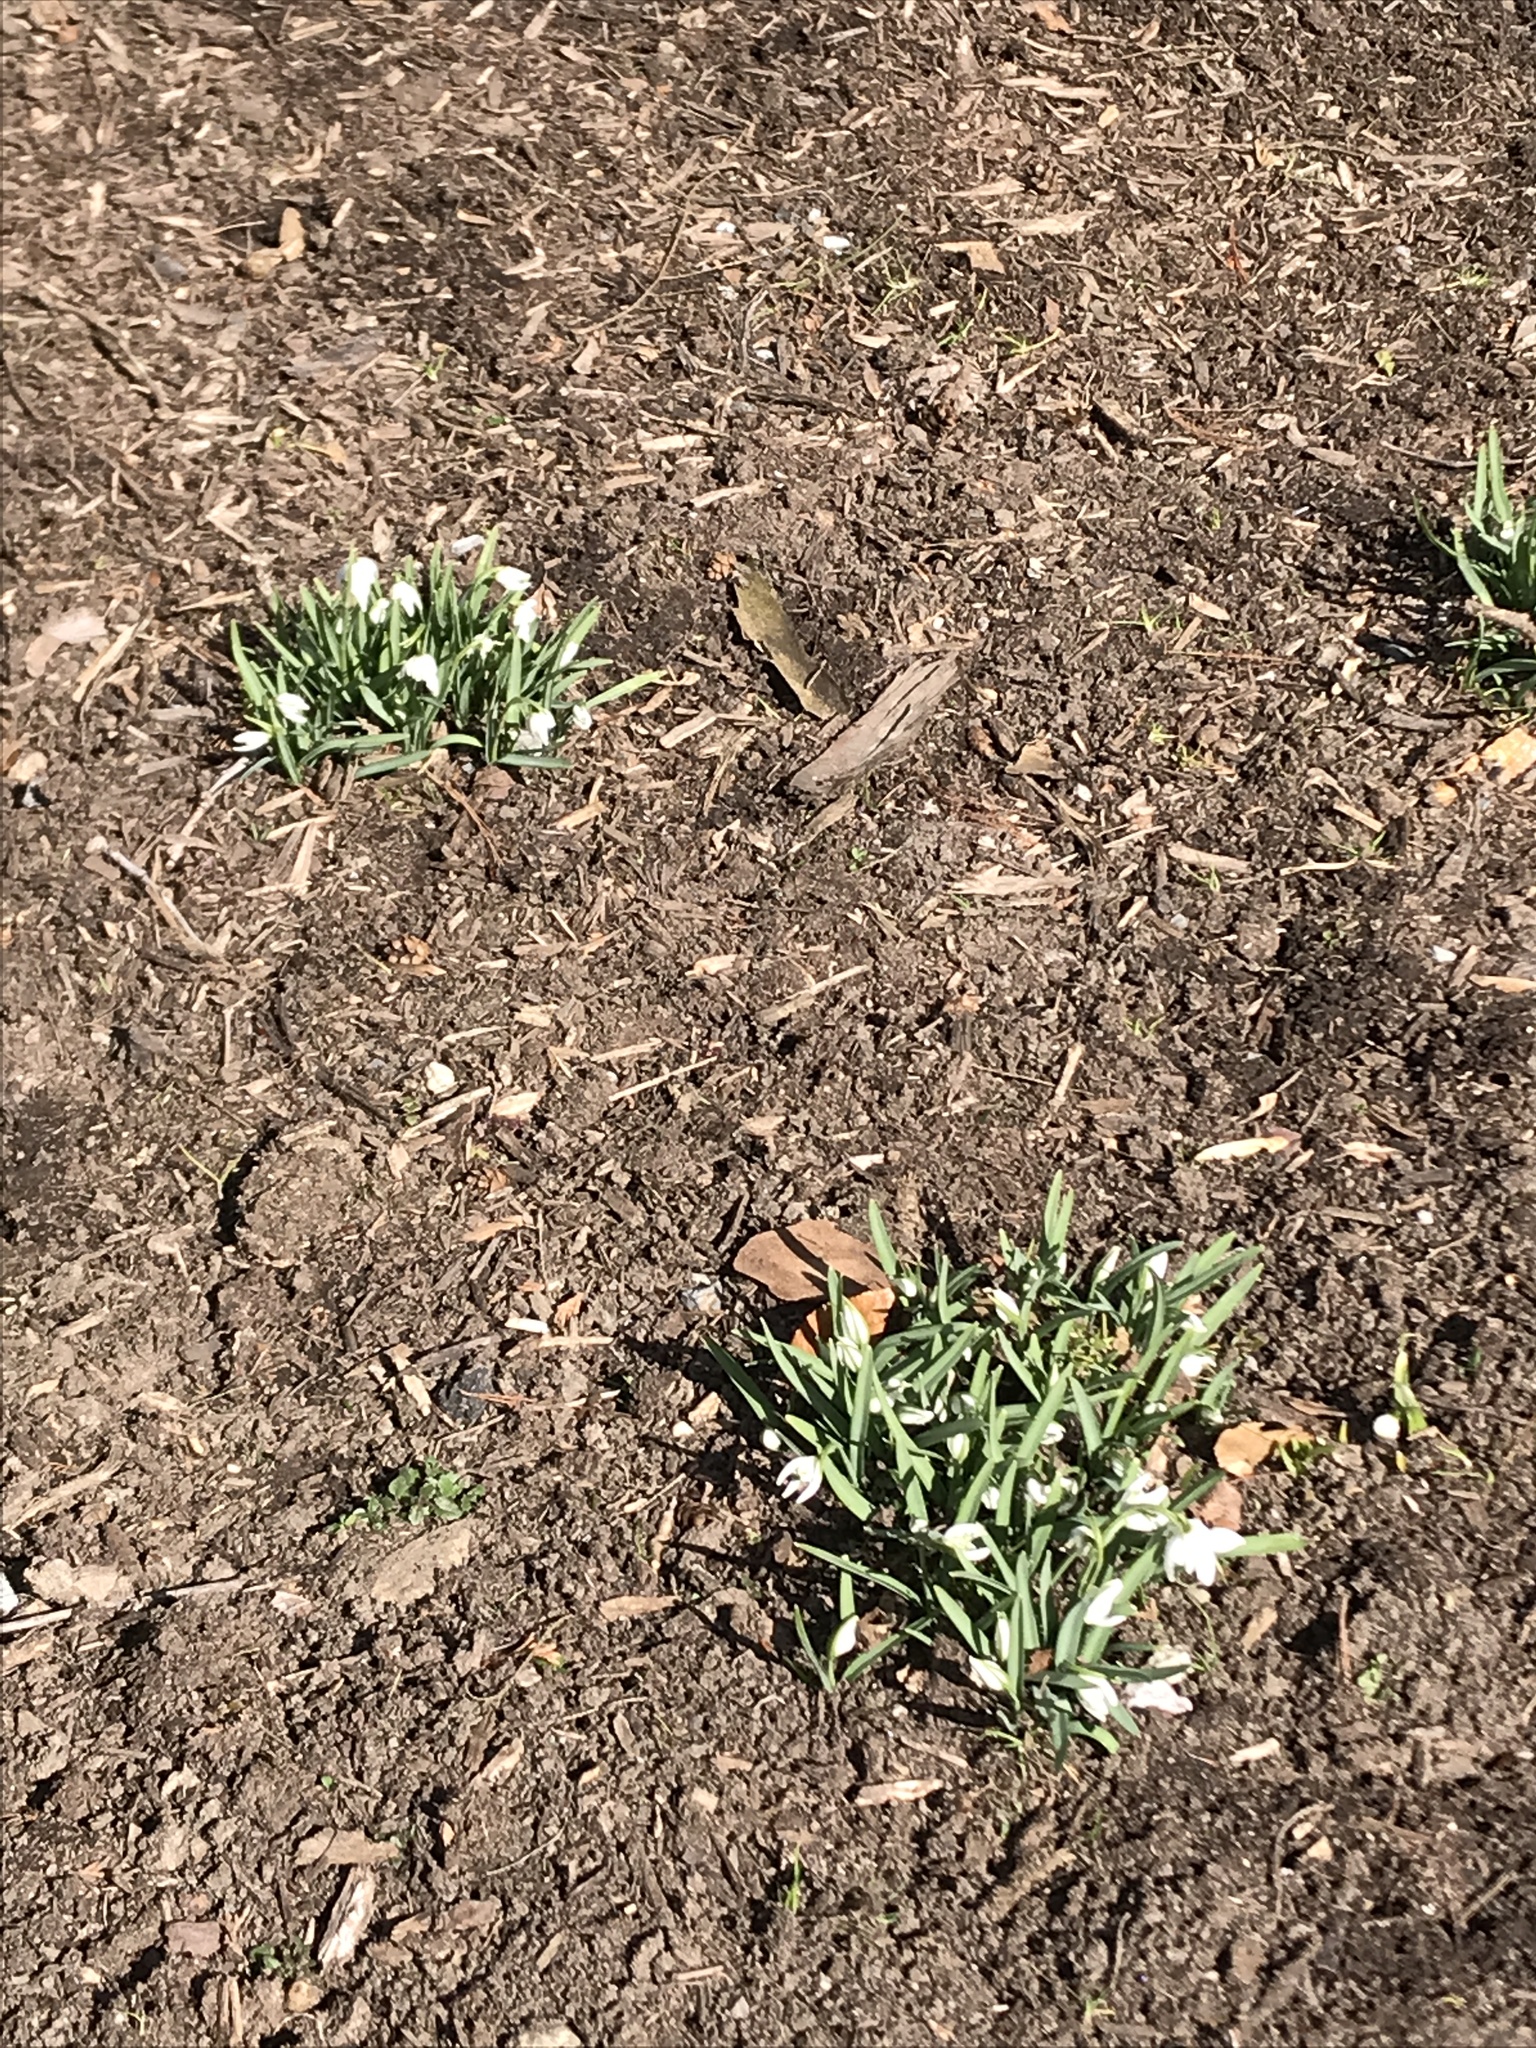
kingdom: Plantae
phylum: Tracheophyta
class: Liliopsida
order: Asparagales
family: Amaryllidaceae
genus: Galanthus
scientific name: Galanthus nivalis
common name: Snowdrop
